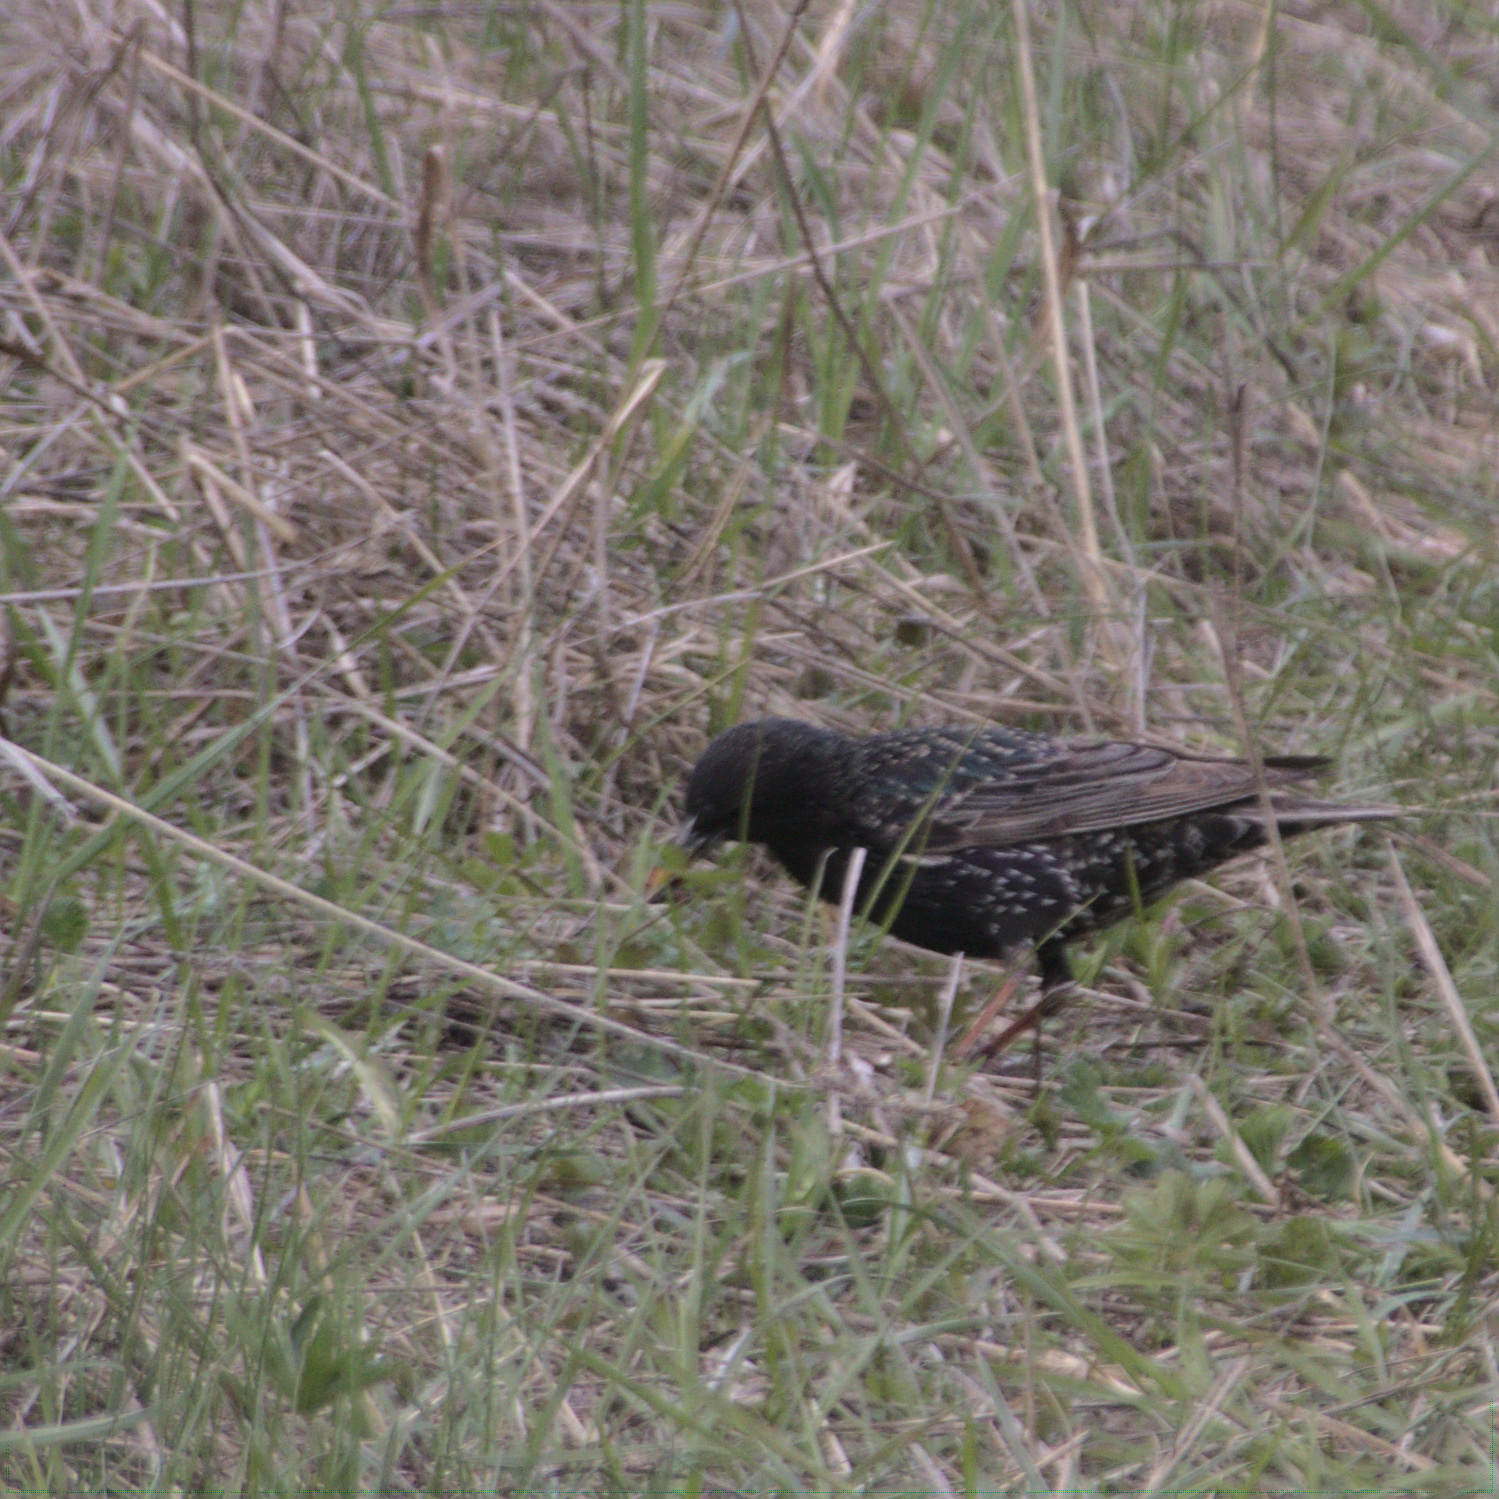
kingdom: Animalia
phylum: Chordata
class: Aves
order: Passeriformes
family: Sturnidae
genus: Sturnus
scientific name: Sturnus vulgaris
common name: Common starling
